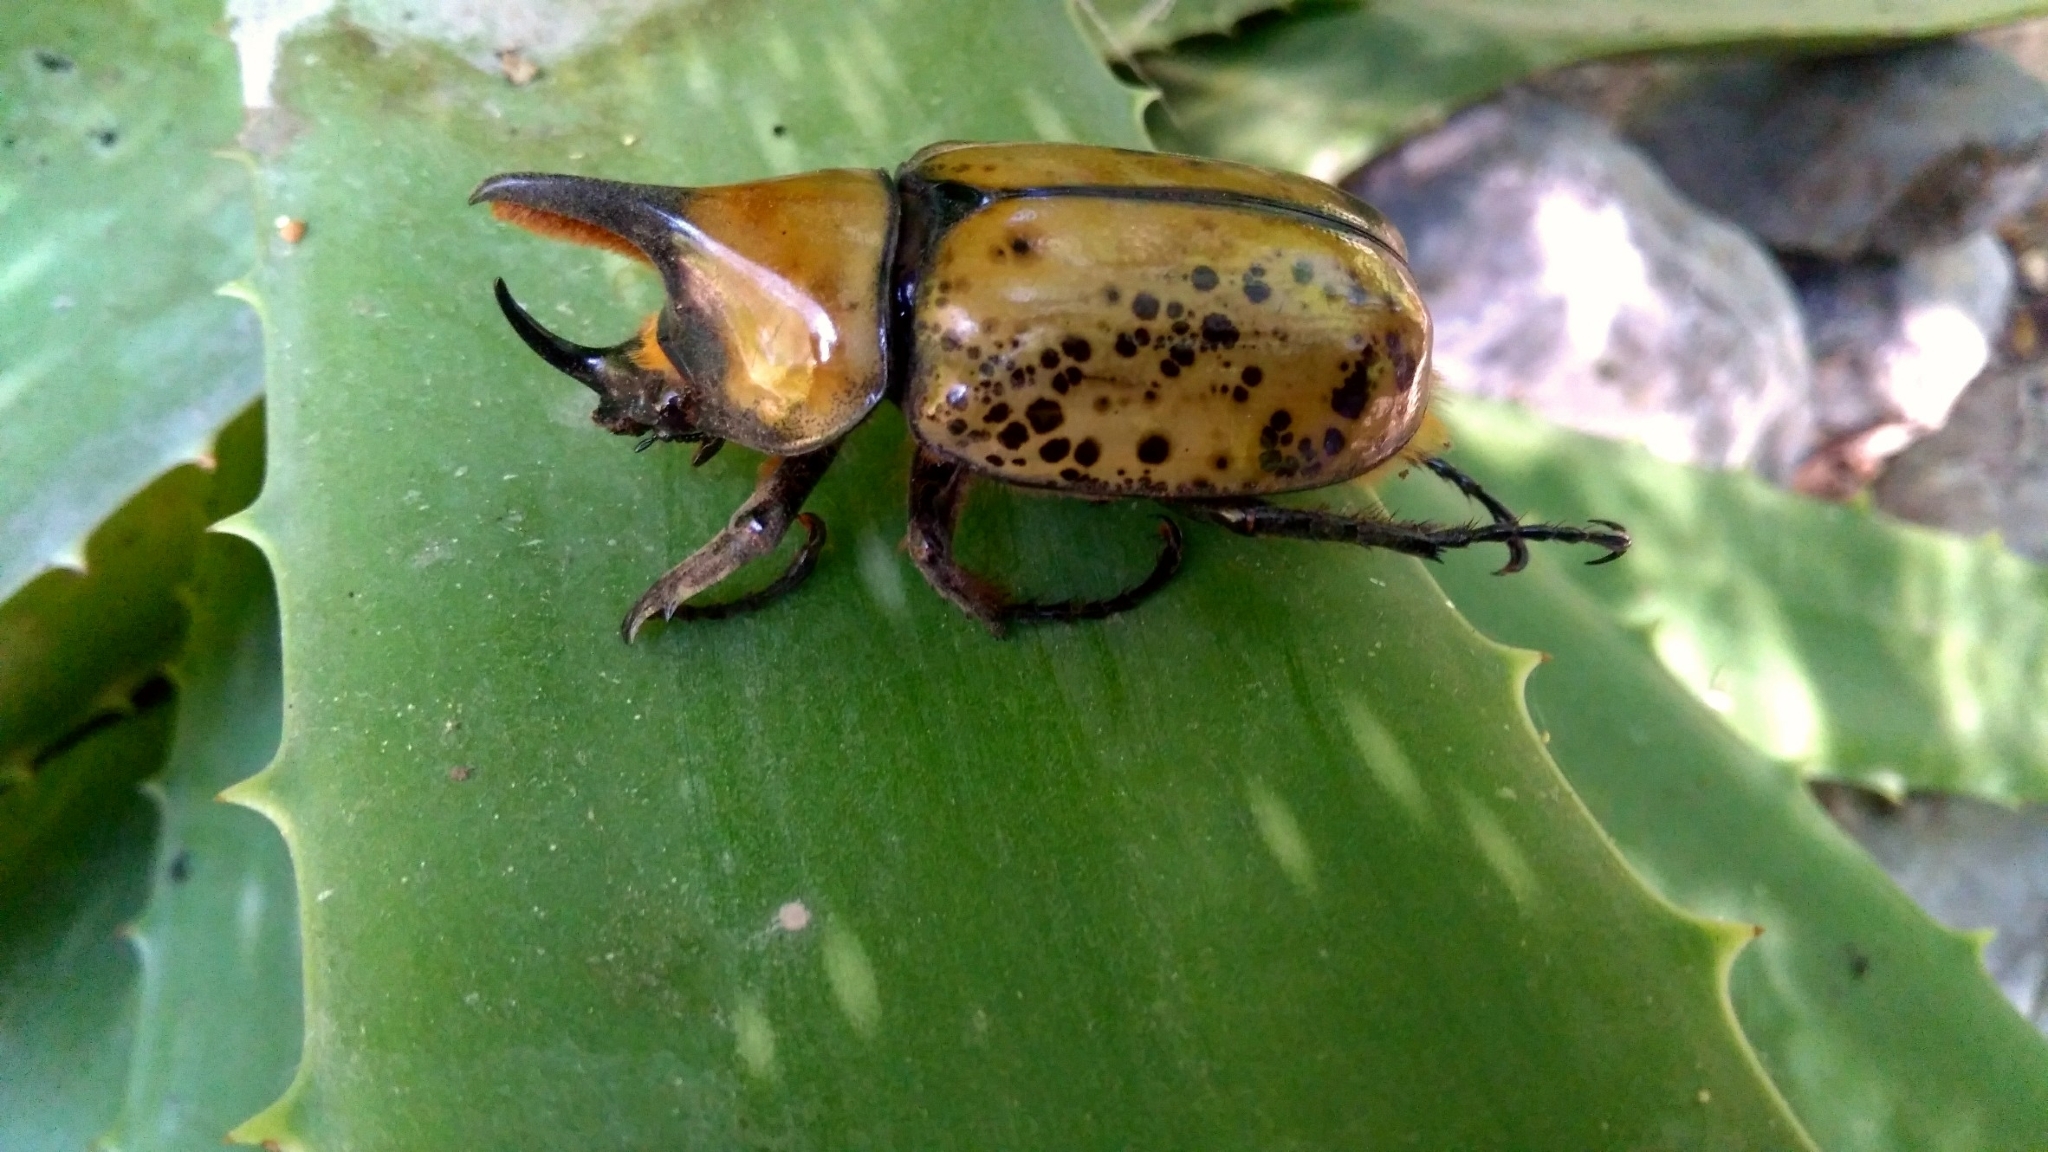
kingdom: Animalia
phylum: Arthropoda
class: Insecta
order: Coleoptera
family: Scarabaeidae
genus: Dynastes
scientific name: Dynastes hyllus
